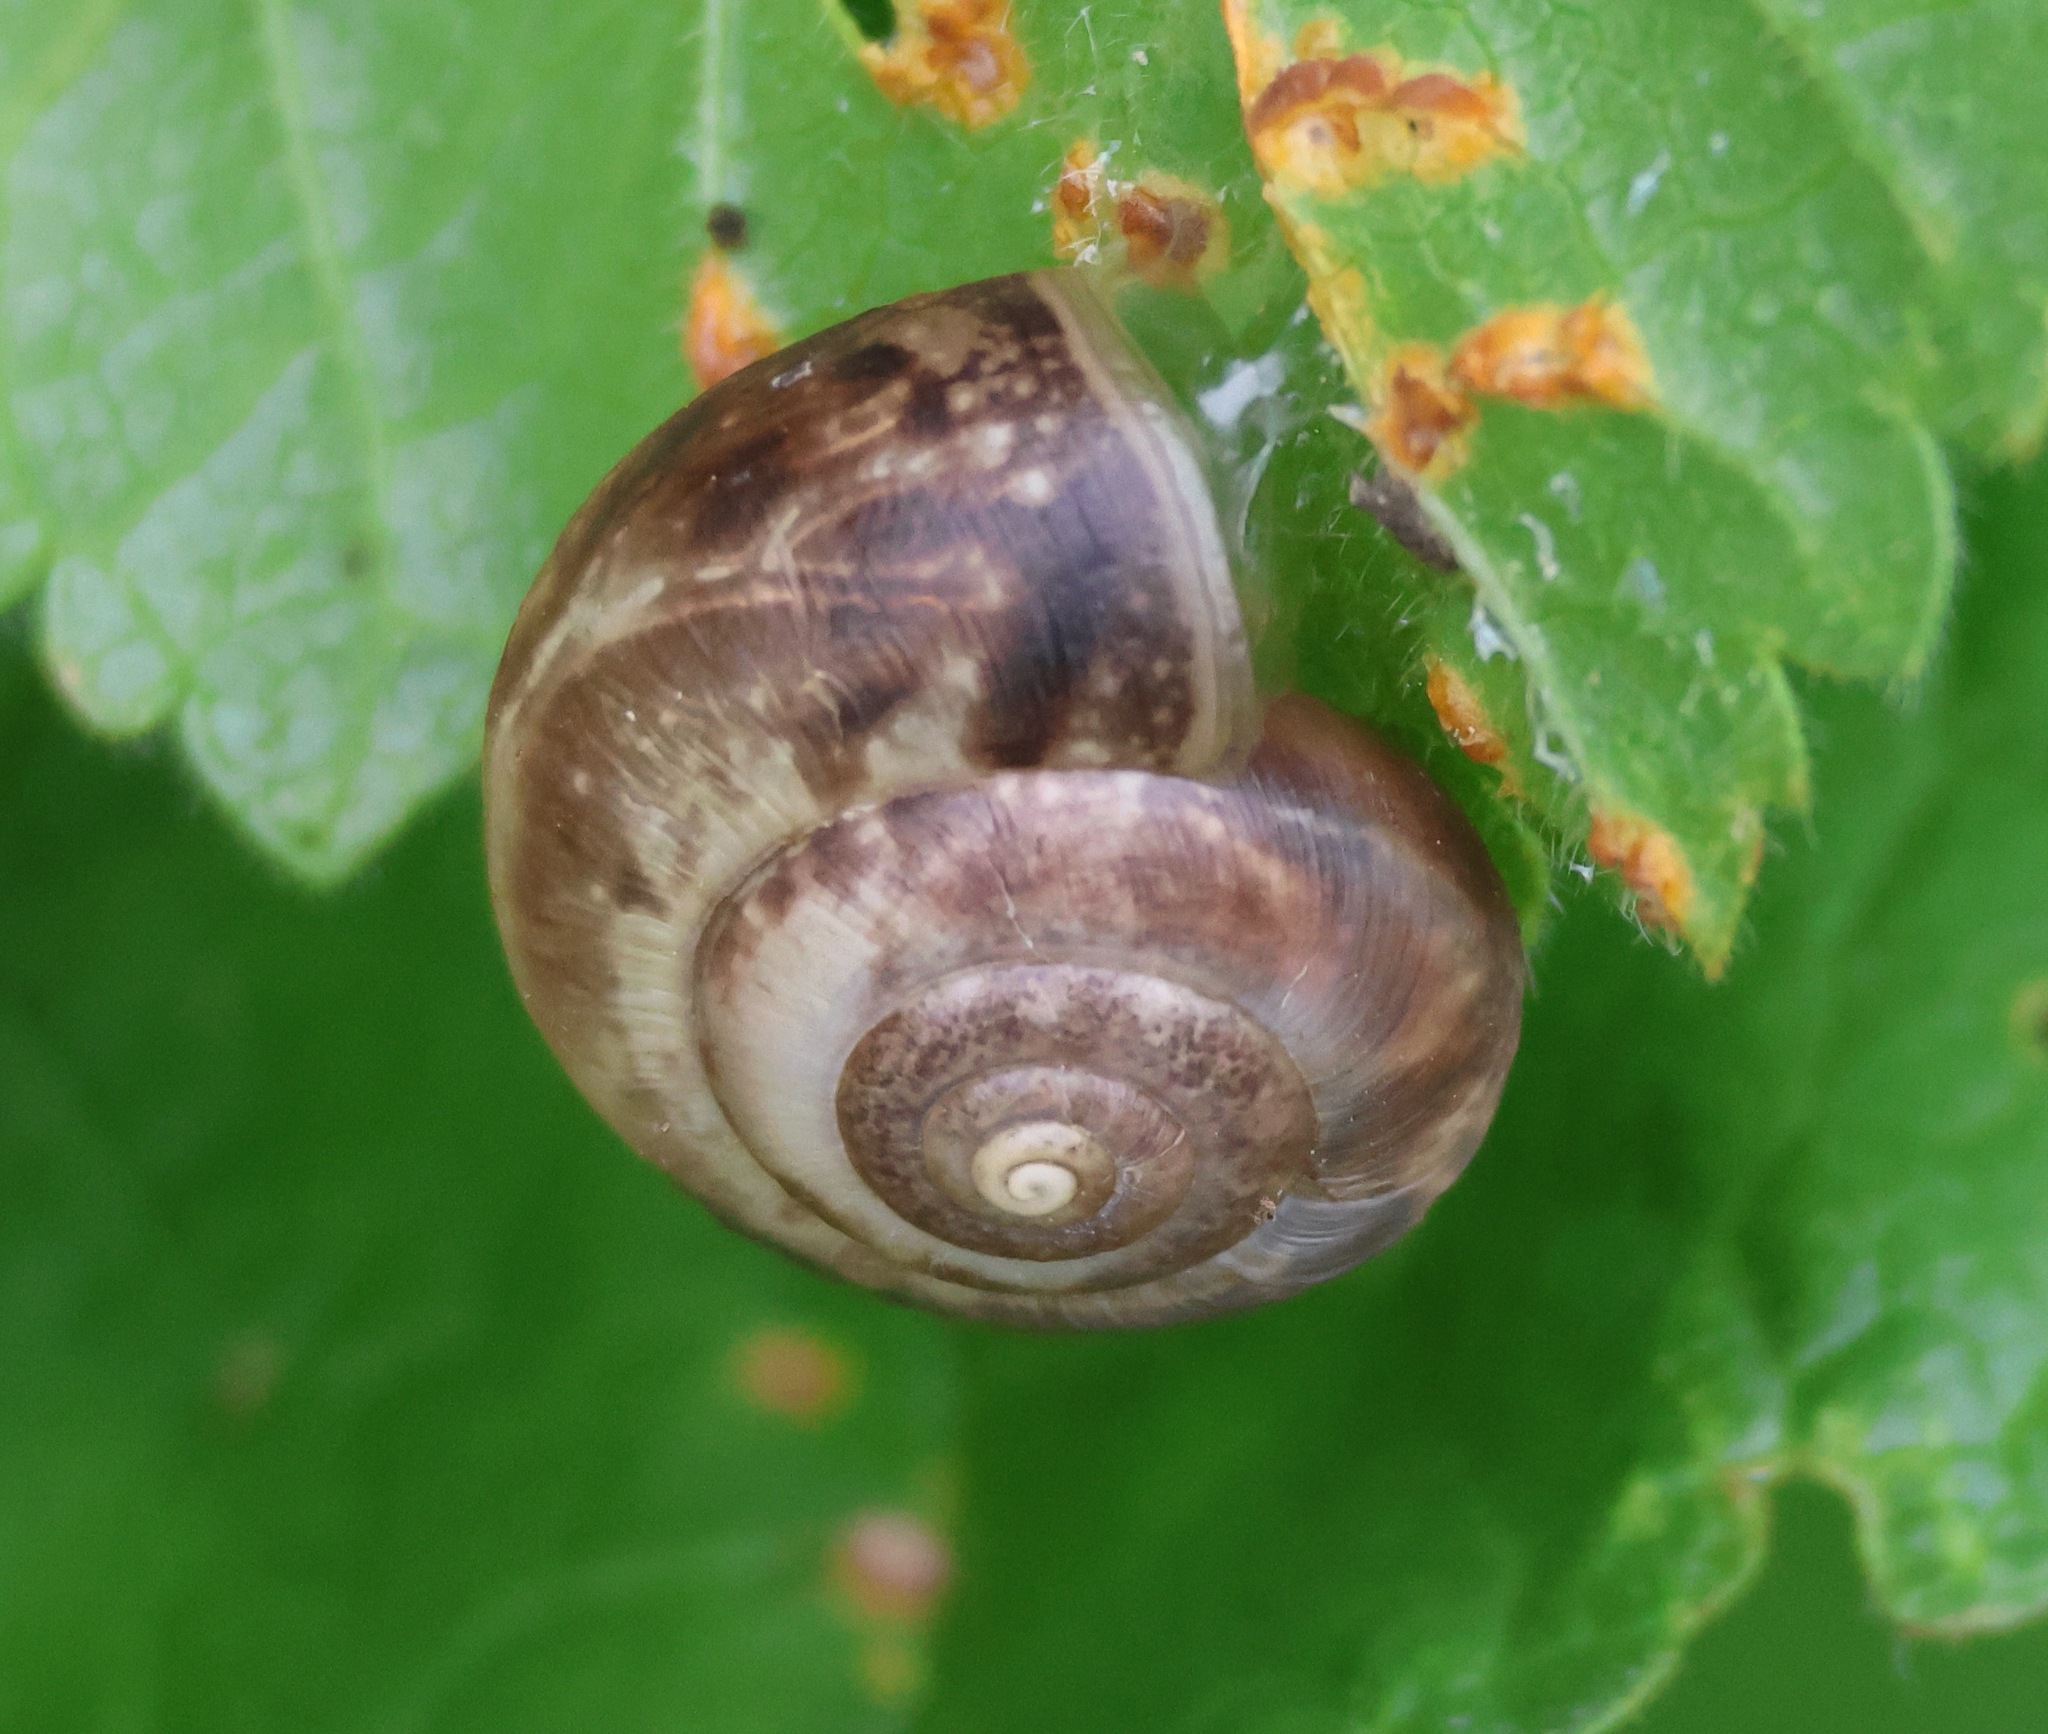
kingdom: Animalia
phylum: Mollusca
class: Gastropoda
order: Stylommatophora
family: Hygromiidae
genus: Monacha
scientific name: Monacha cantiana
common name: Kentish snail
